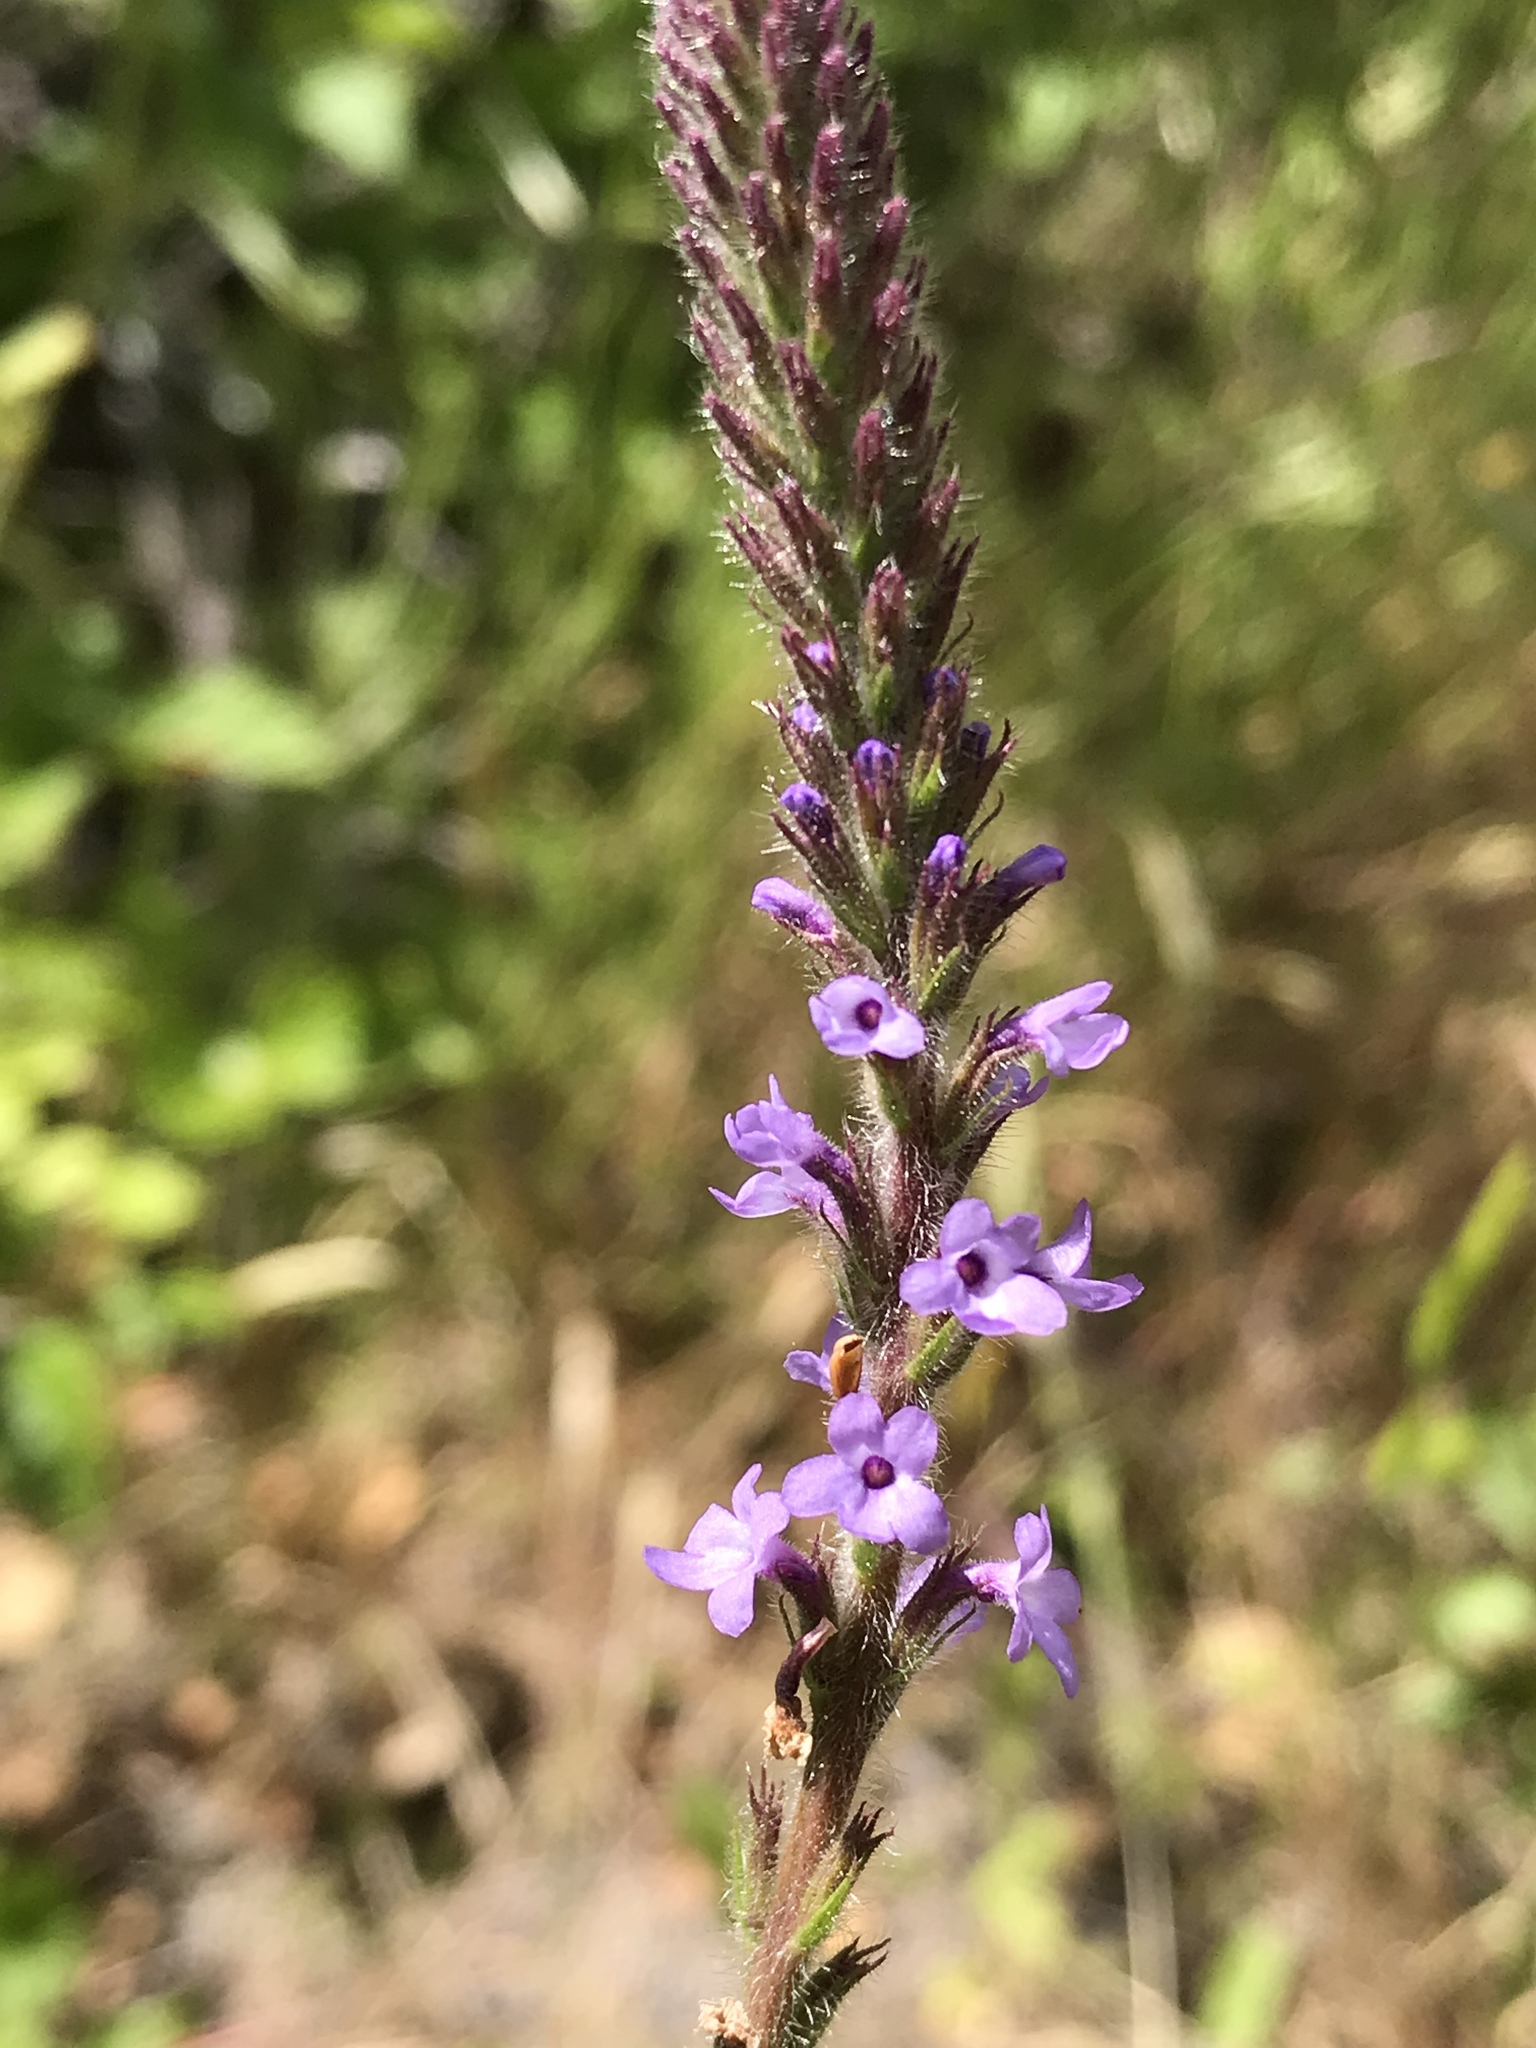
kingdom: Plantae
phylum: Tracheophyta
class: Magnoliopsida
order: Lamiales
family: Verbenaceae
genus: Verbena
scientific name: Verbena lasiostachys
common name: Vervain
